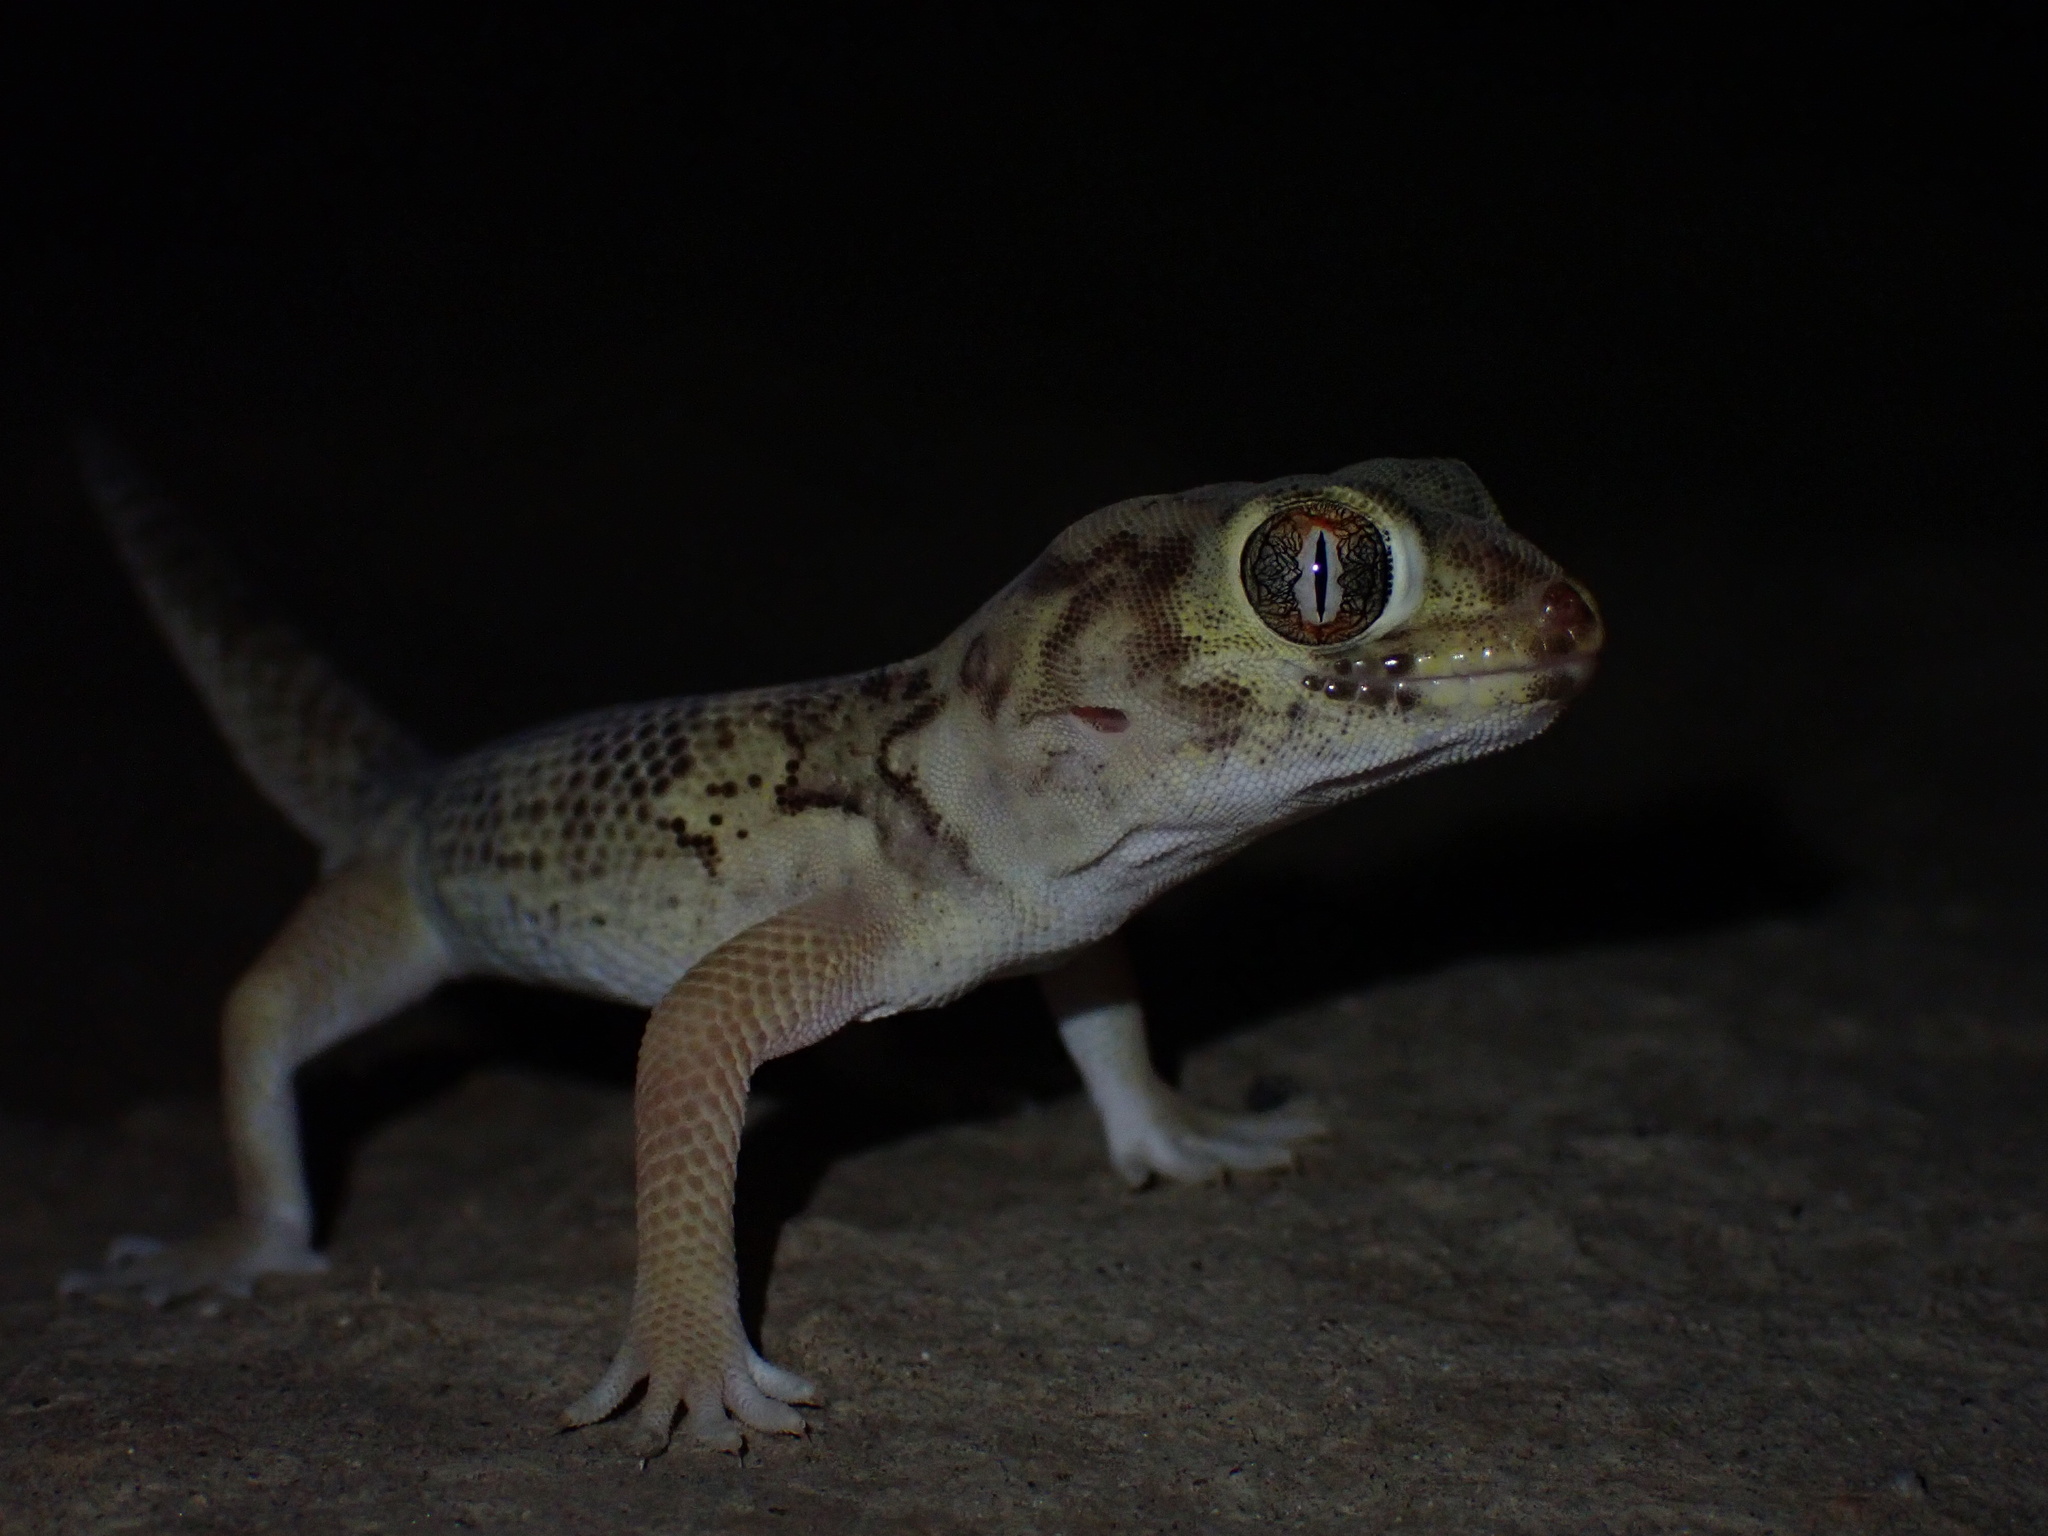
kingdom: Animalia
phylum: Chordata
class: Squamata
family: Sphaerodactylidae
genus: Teratoscincus
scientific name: Teratoscincus bedriagai
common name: Bedriaga's plate-tailed gecko
